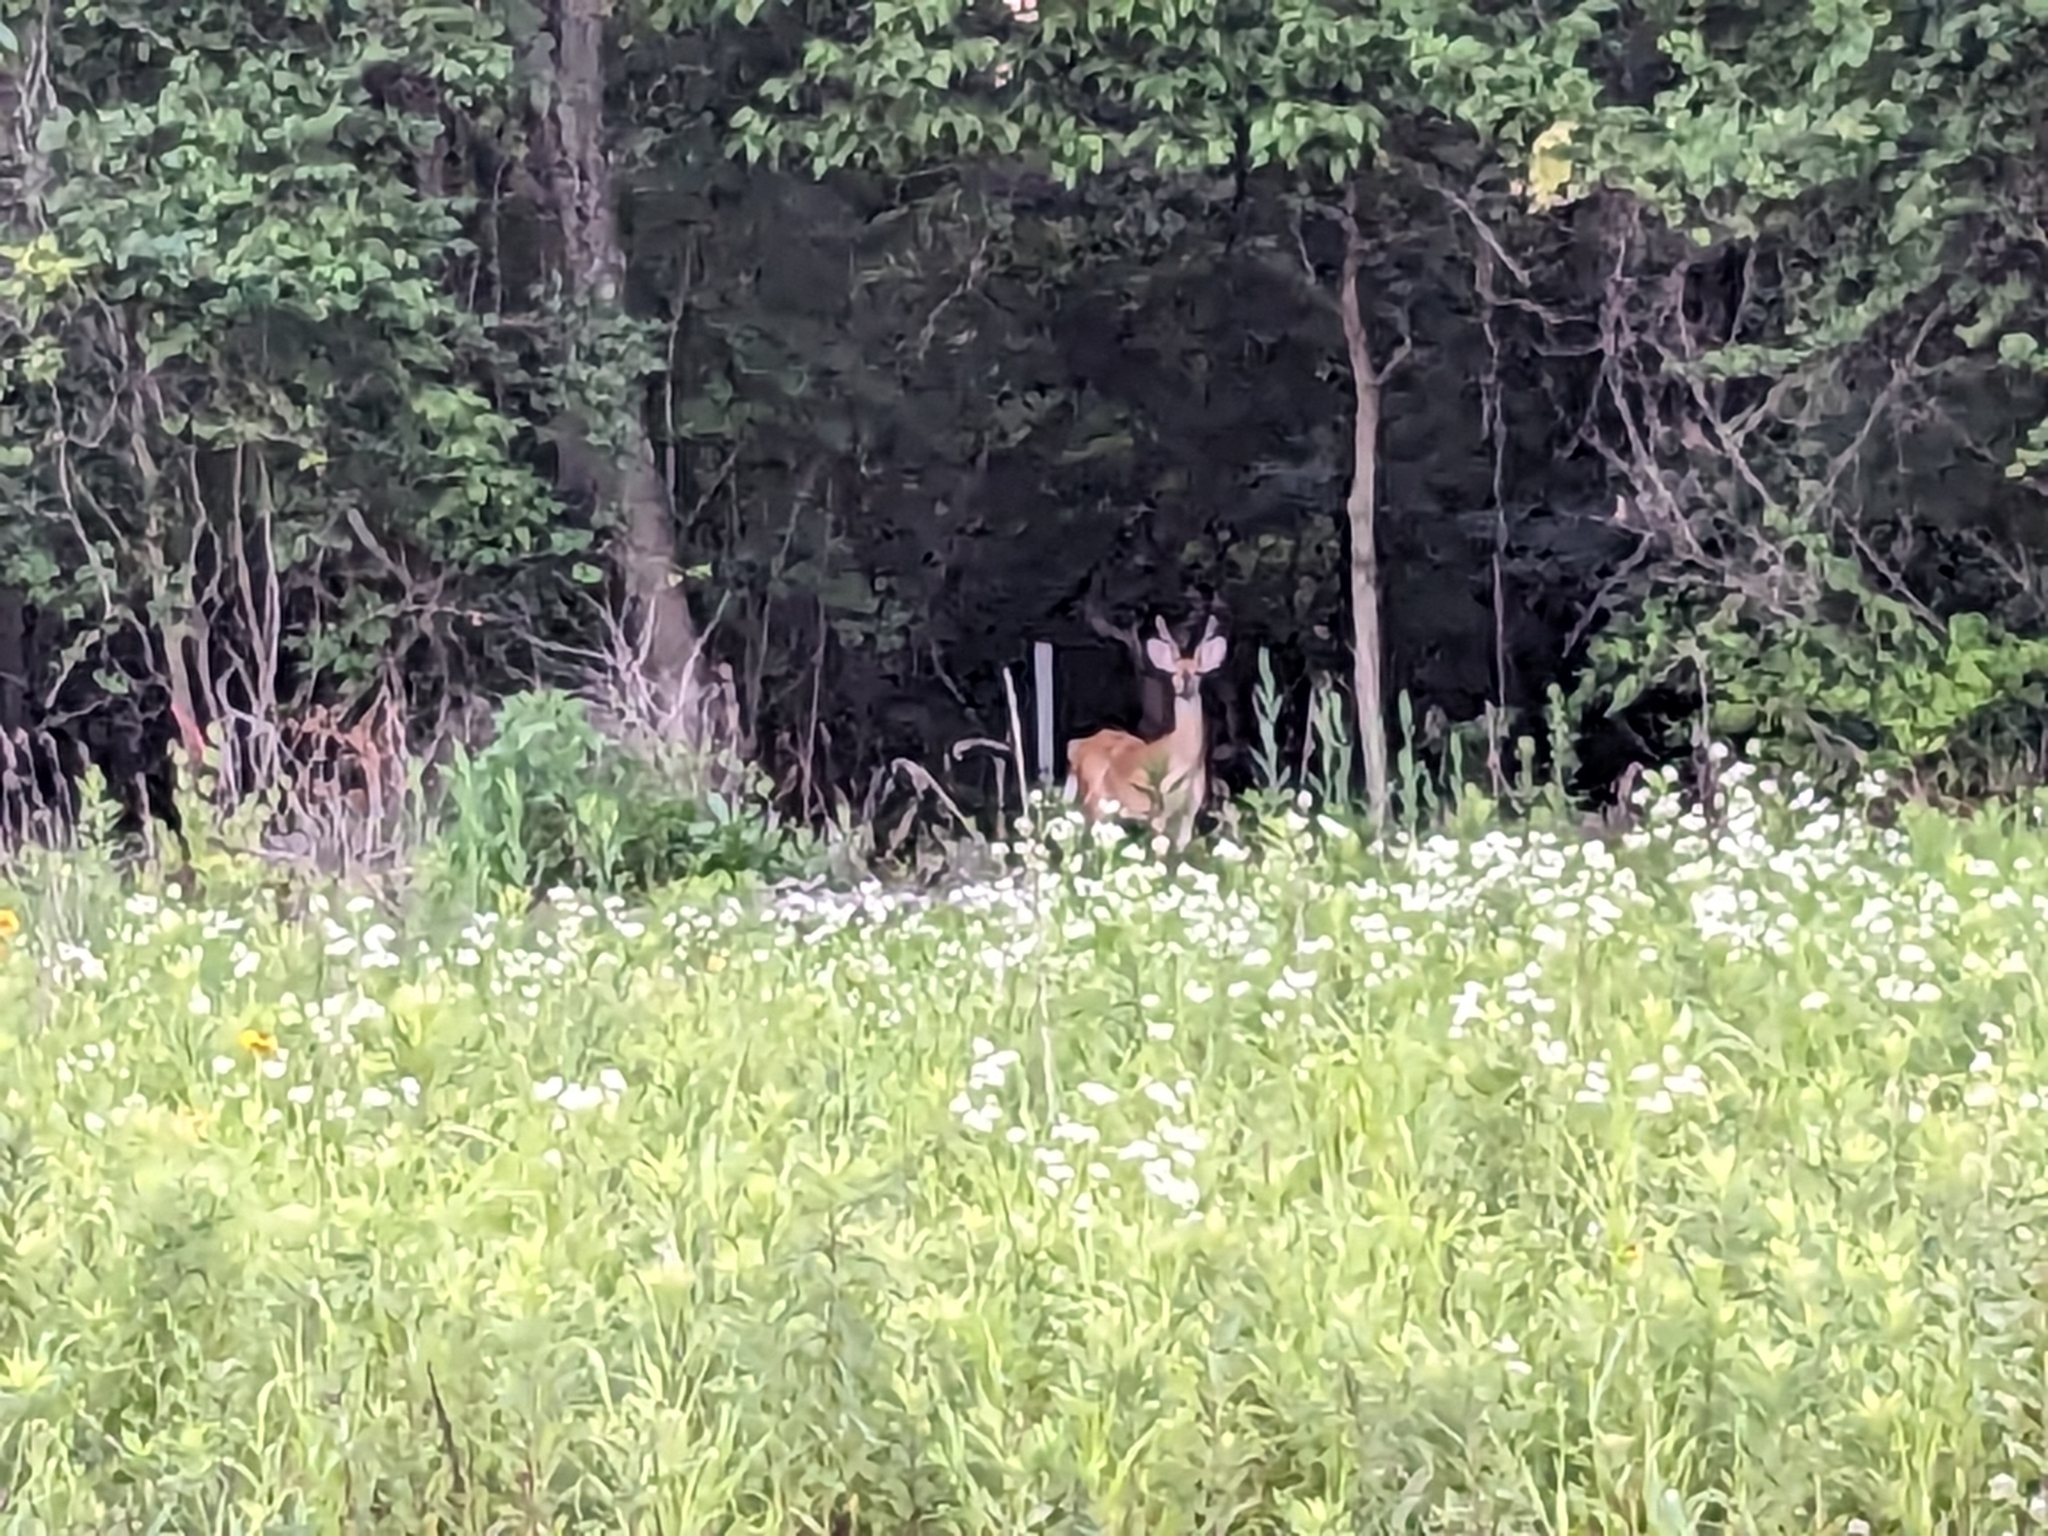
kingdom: Animalia
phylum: Chordata
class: Mammalia
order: Artiodactyla
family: Cervidae
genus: Odocoileus
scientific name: Odocoileus virginianus
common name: White-tailed deer
